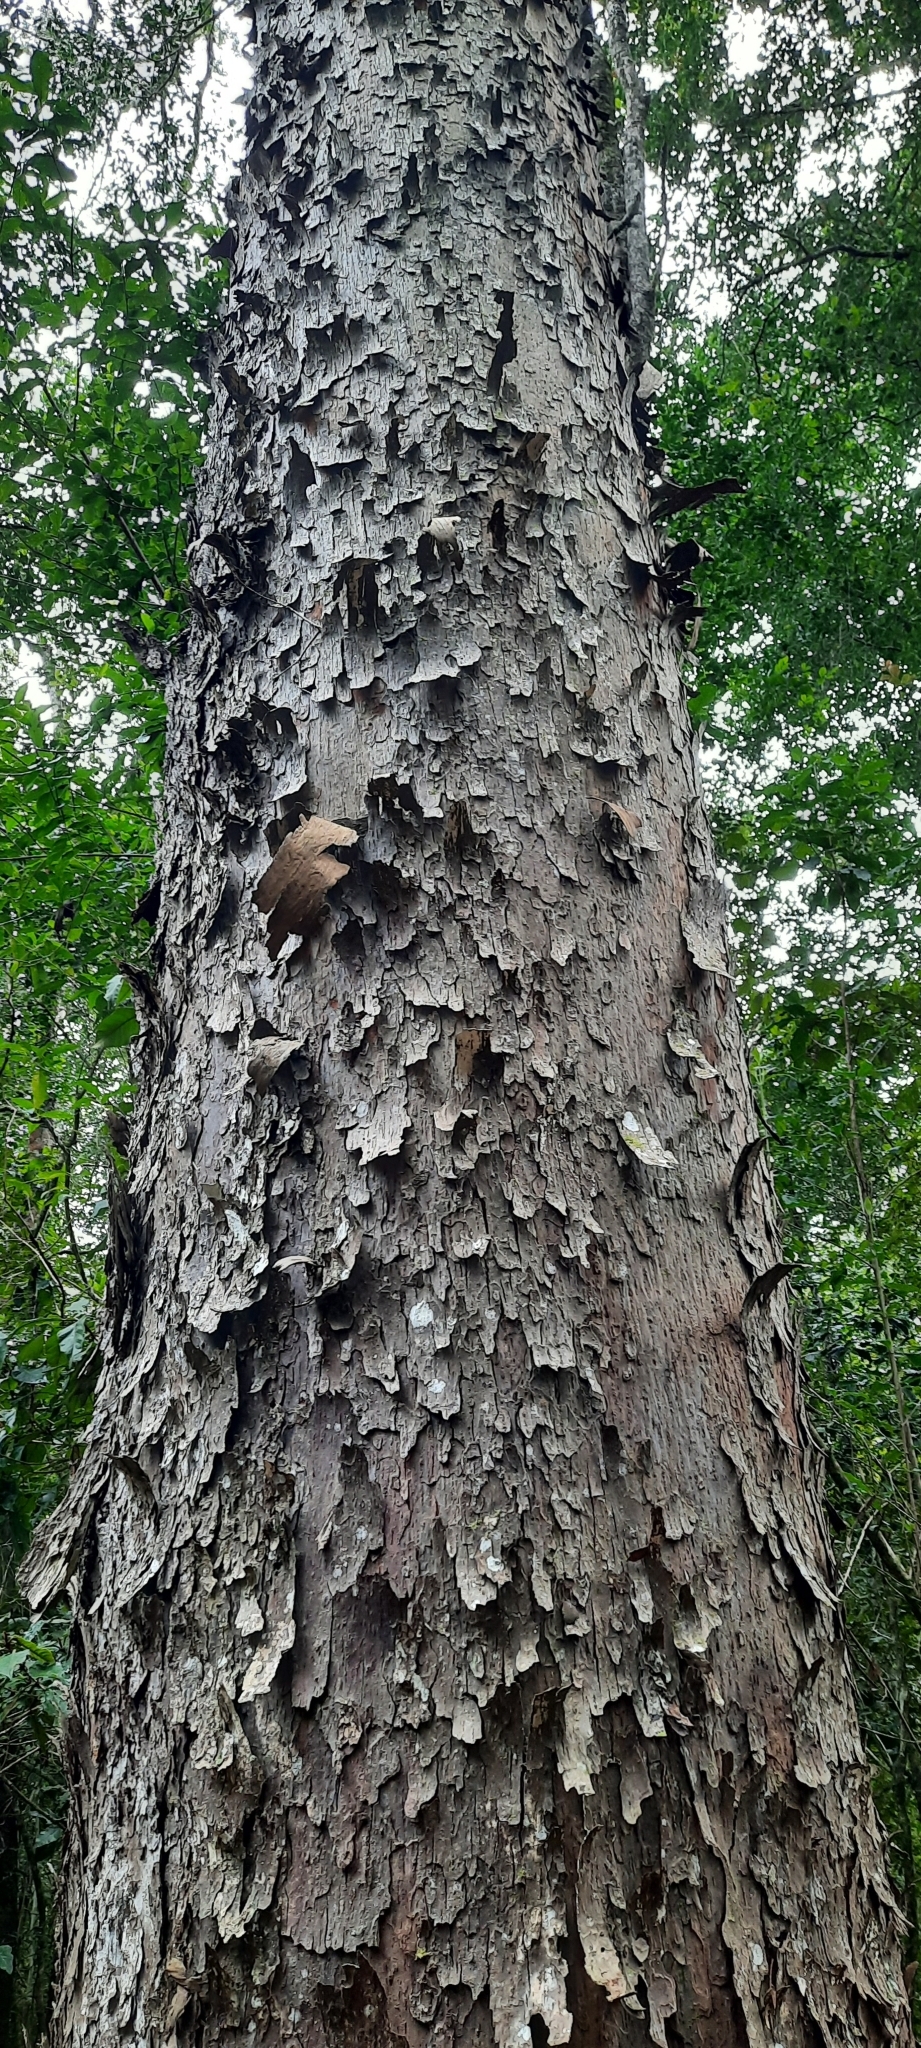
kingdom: Plantae
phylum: Tracheophyta
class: Pinopsida
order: Pinales
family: Podocarpaceae
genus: Afrocarpus
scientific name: Afrocarpus falcatus
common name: Bastard yellowwood
